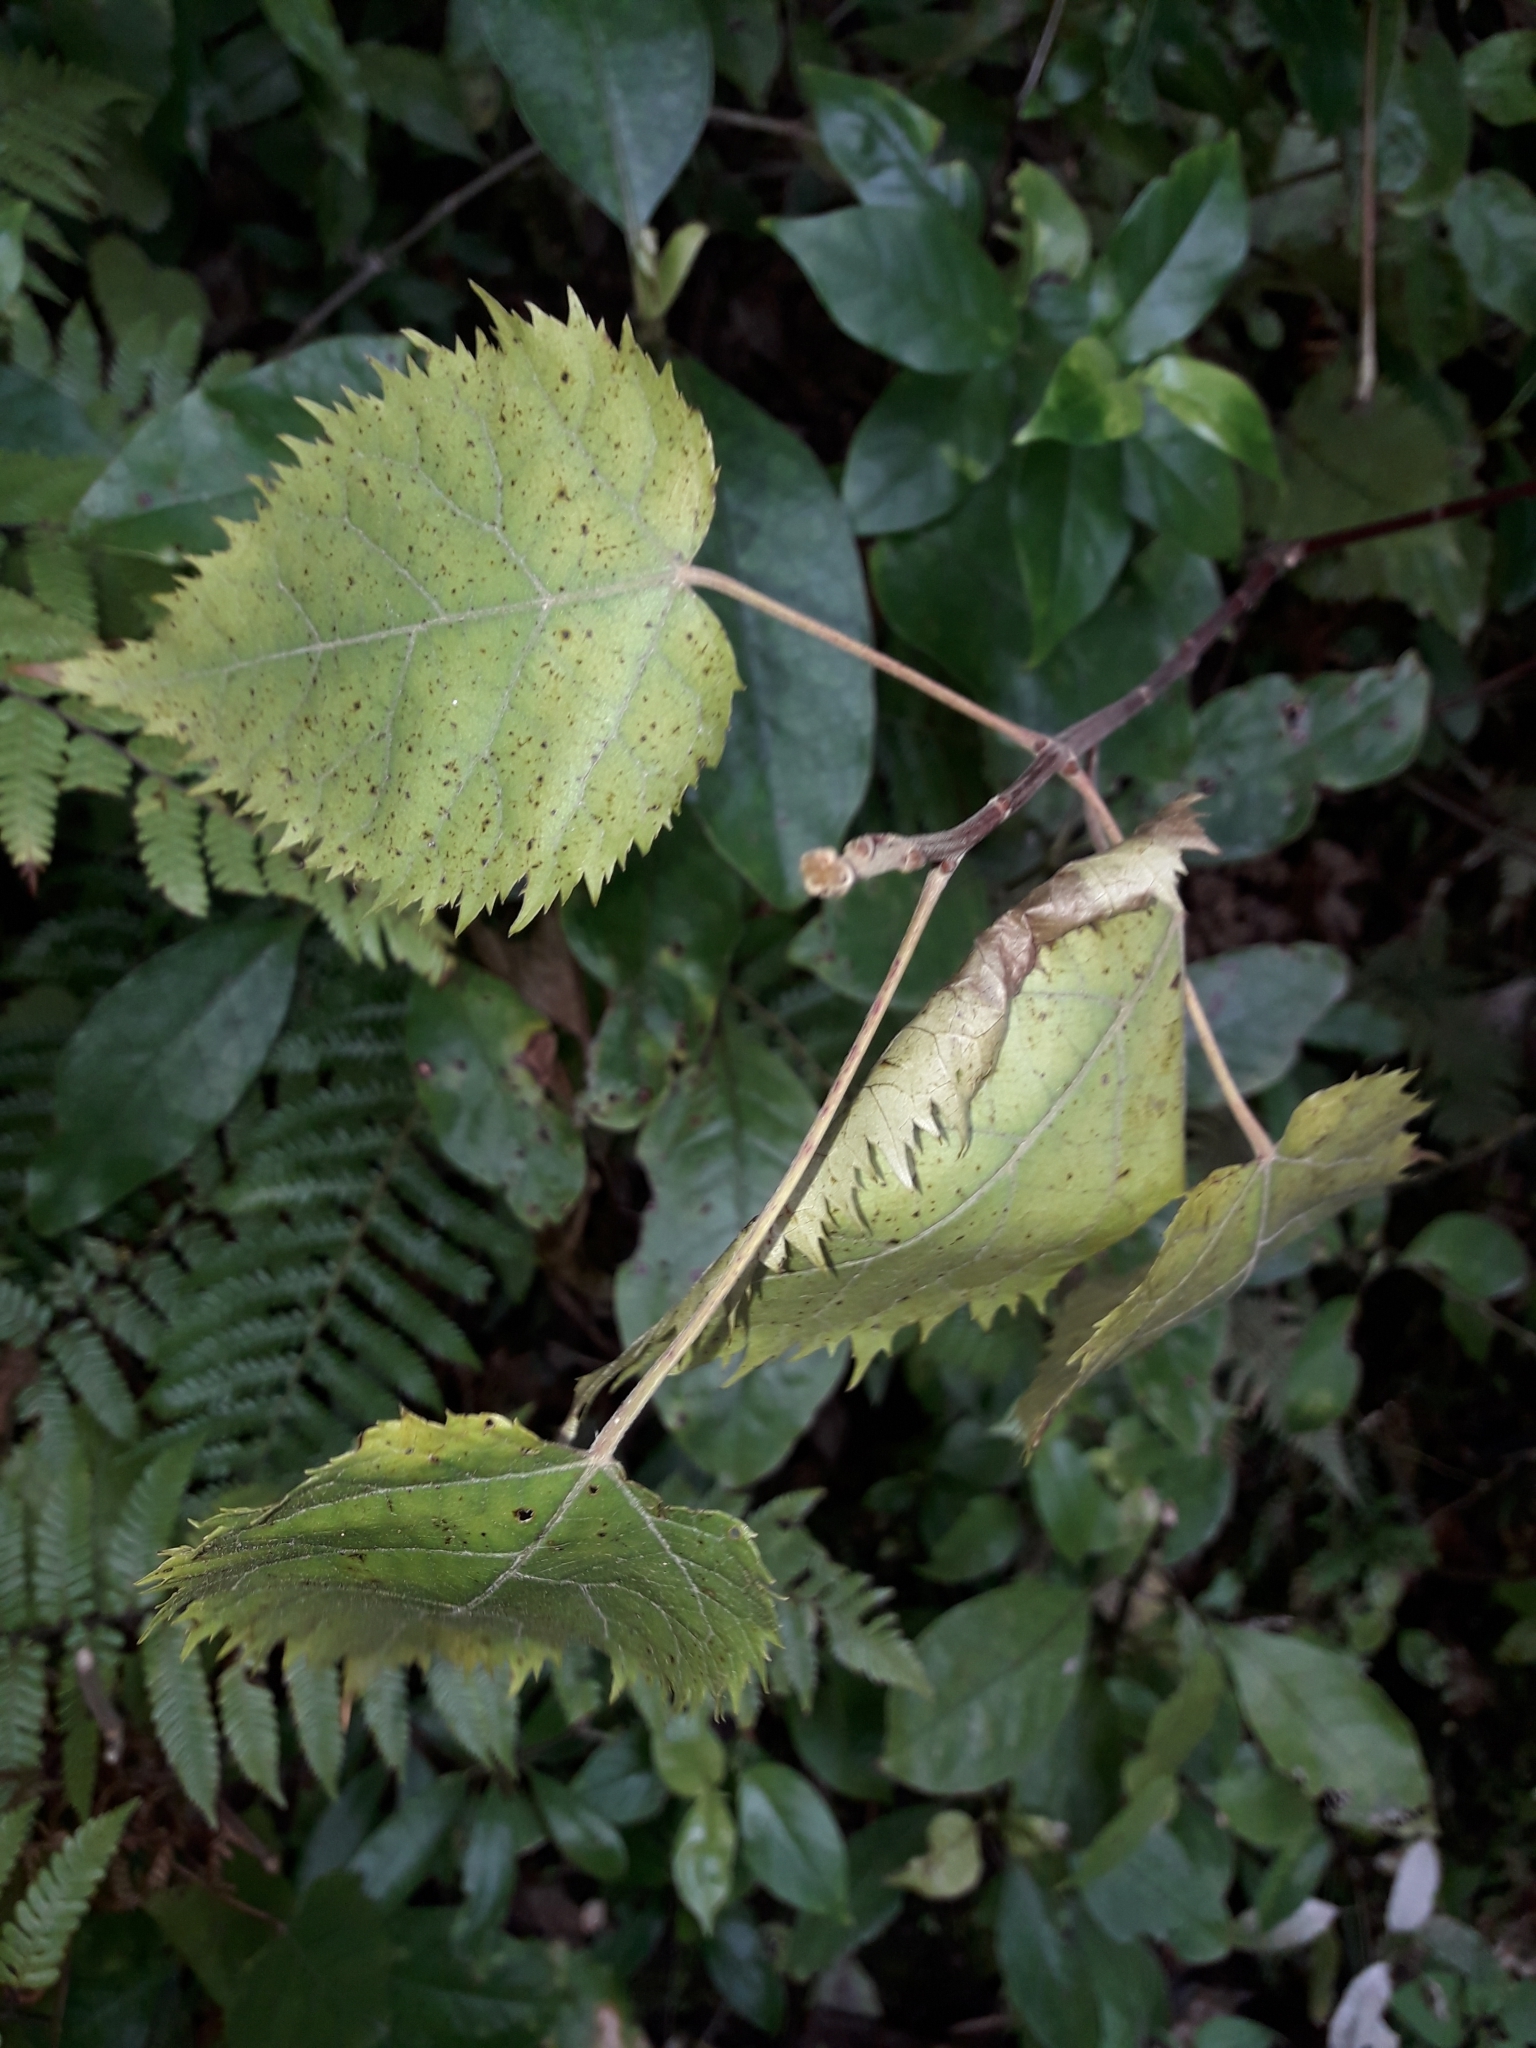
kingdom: Plantae
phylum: Tracheophyta
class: Magnoliopsida
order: Oxalidales
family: Elaeocarpaceae
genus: Aristotelia
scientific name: Aristotelia serrata
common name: New zealand wineberry
